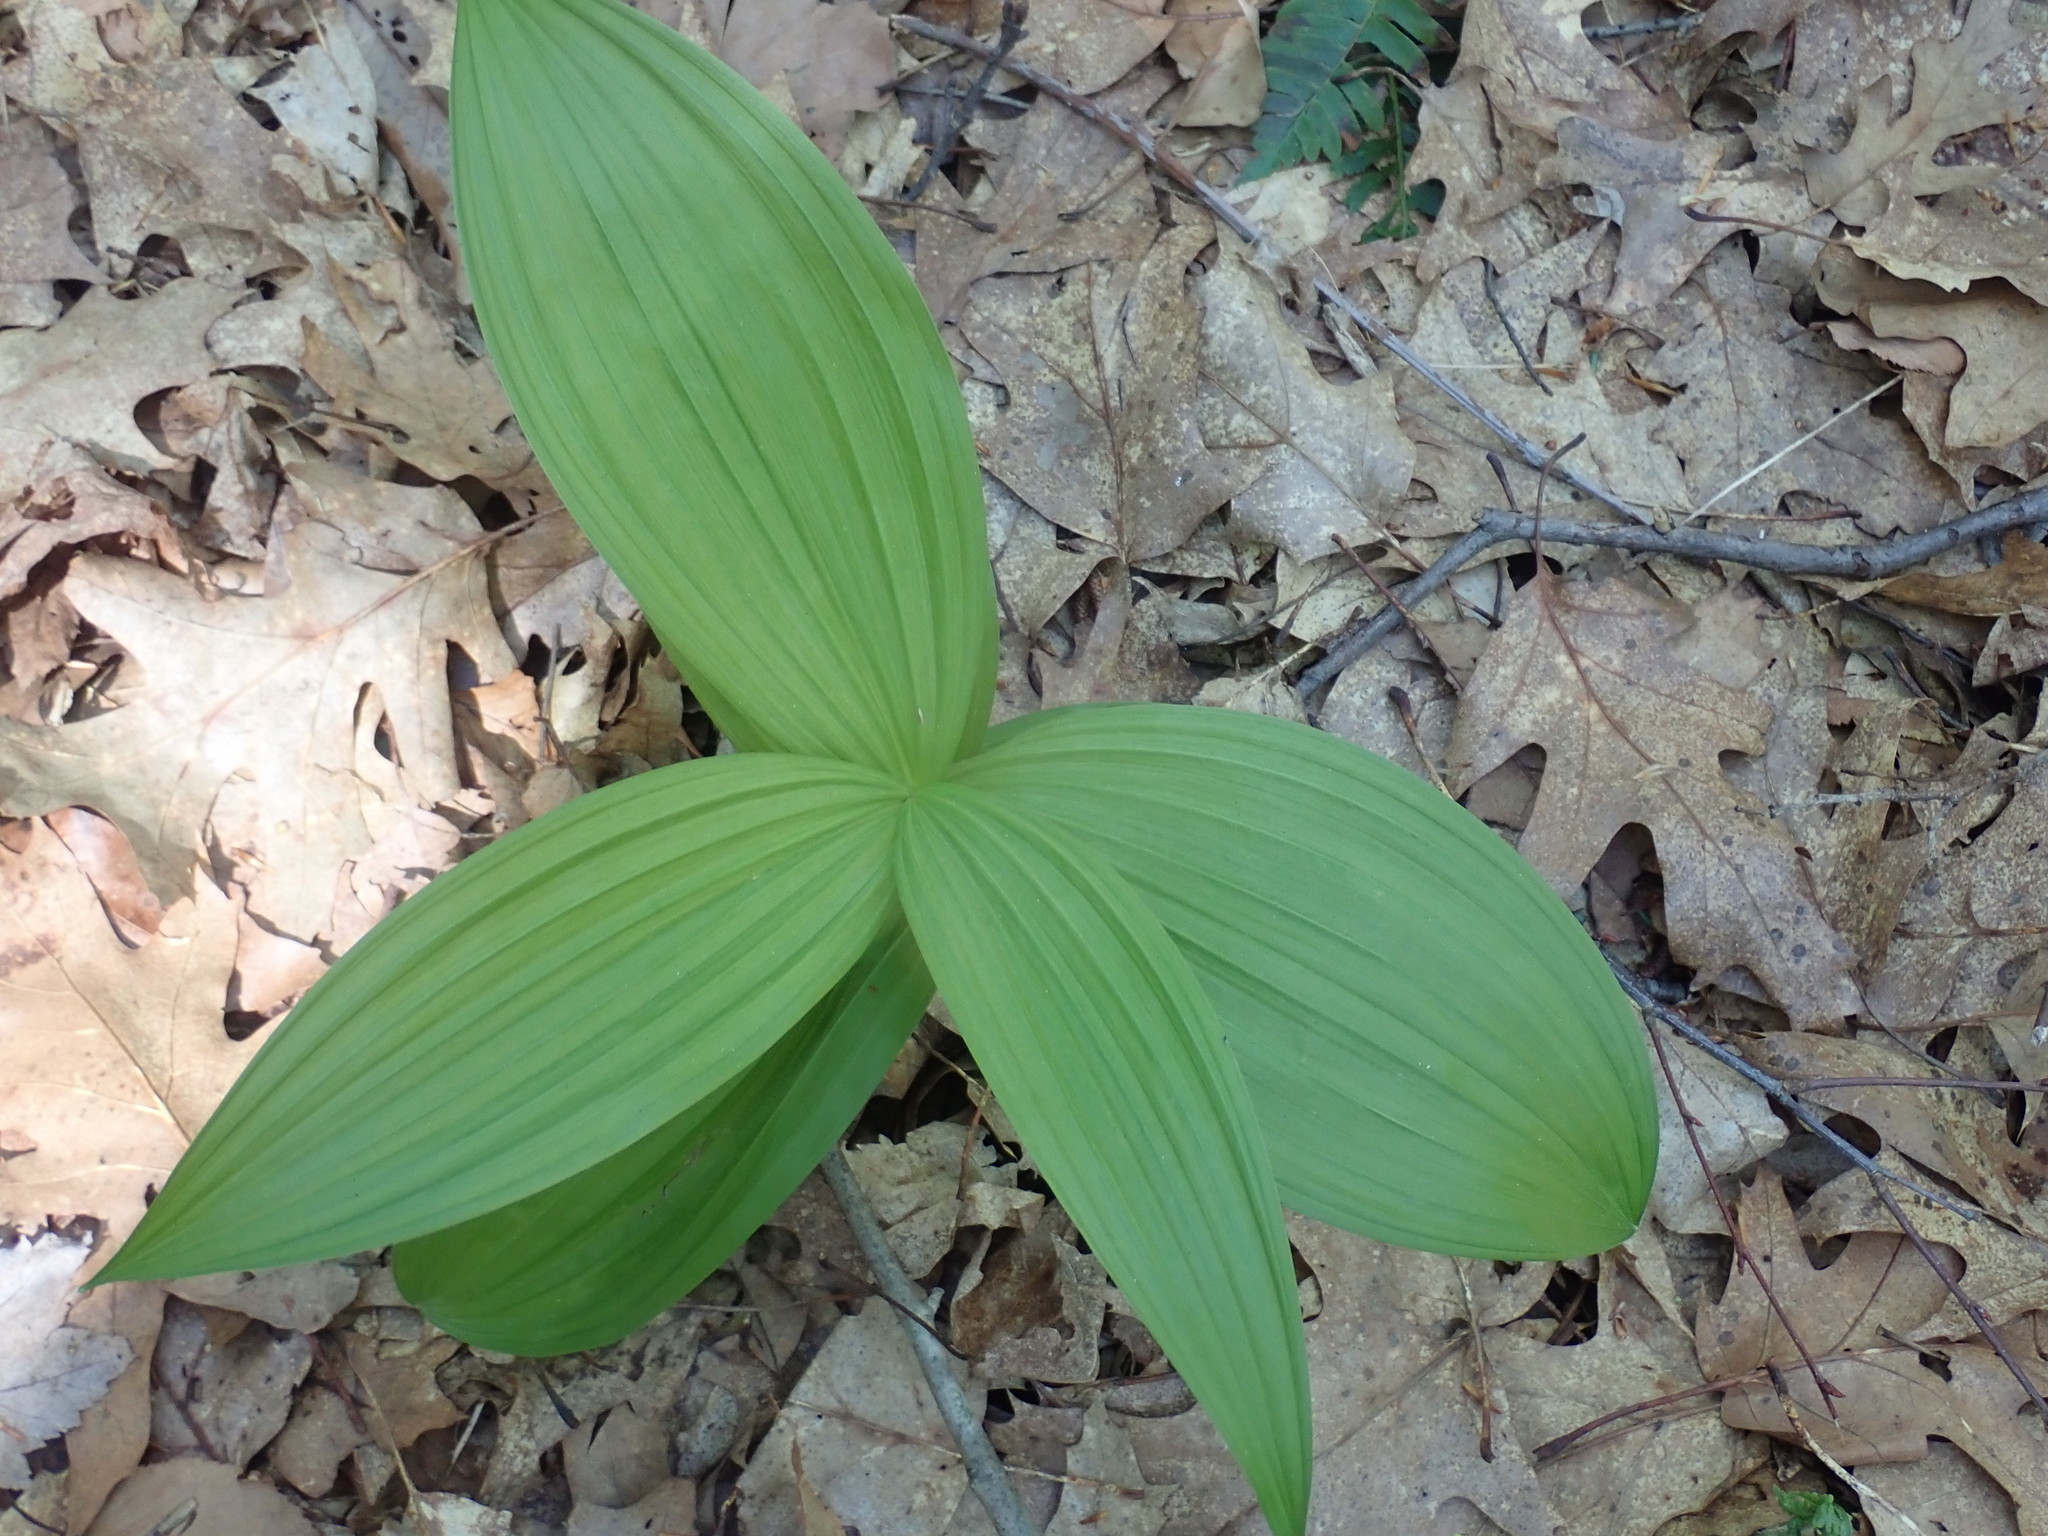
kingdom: Plantae
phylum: Tracheophyta
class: Liliopsida
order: Liliales
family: Melanthiaceae
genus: Veratrum
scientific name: Veratrum viride
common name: American false hellebore
